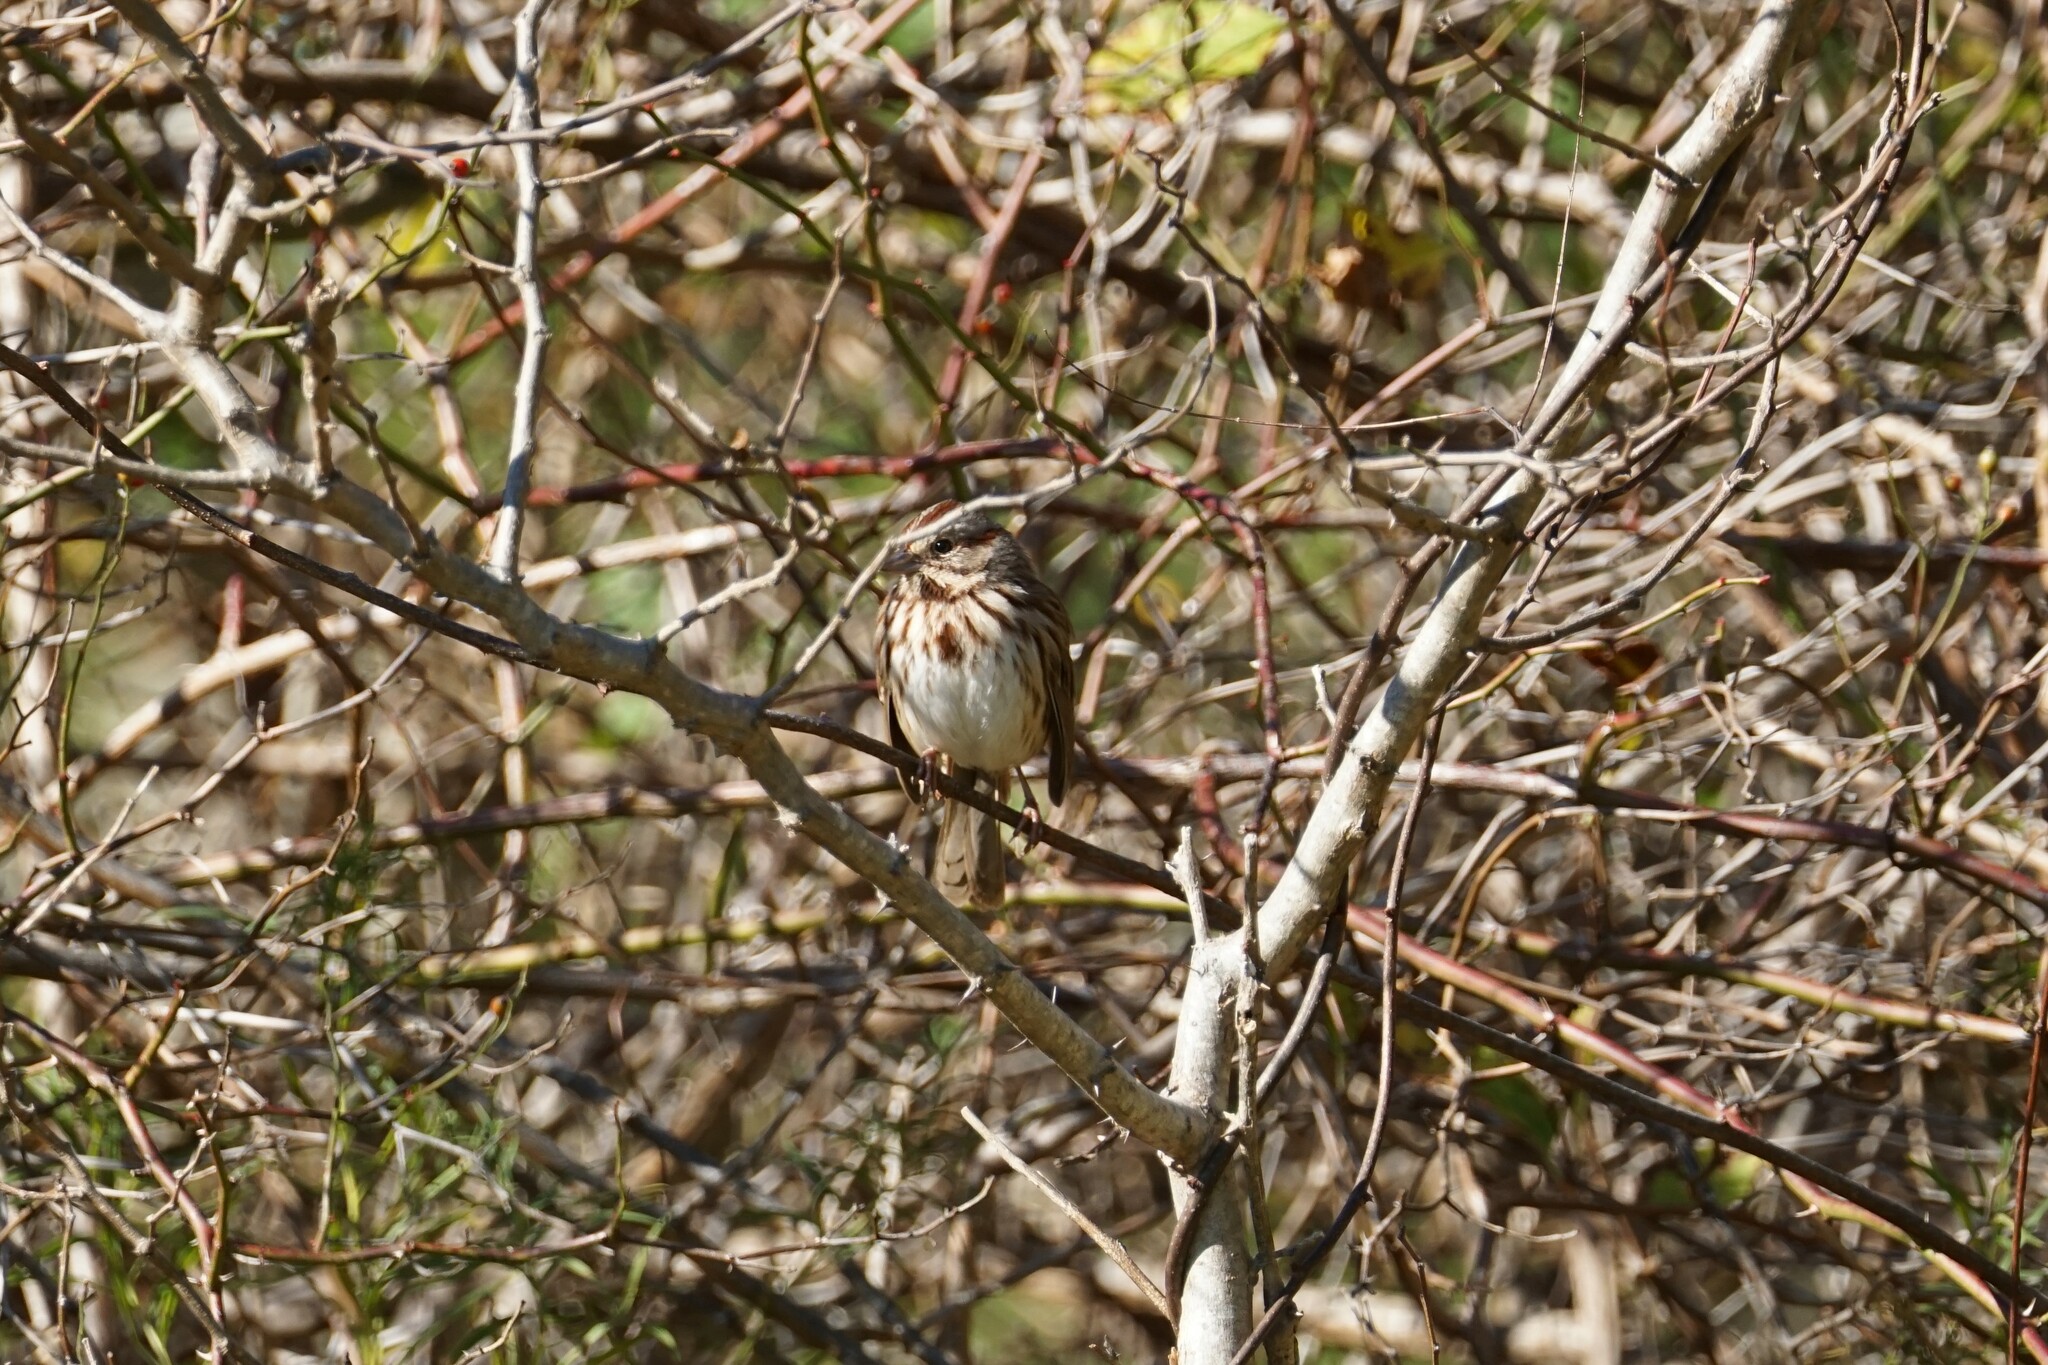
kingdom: Animalia
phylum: Chordata
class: Aves
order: Passeriformes
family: Passerellidae
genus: Melospiza
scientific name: Melospiza melodia
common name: Song sparrow
